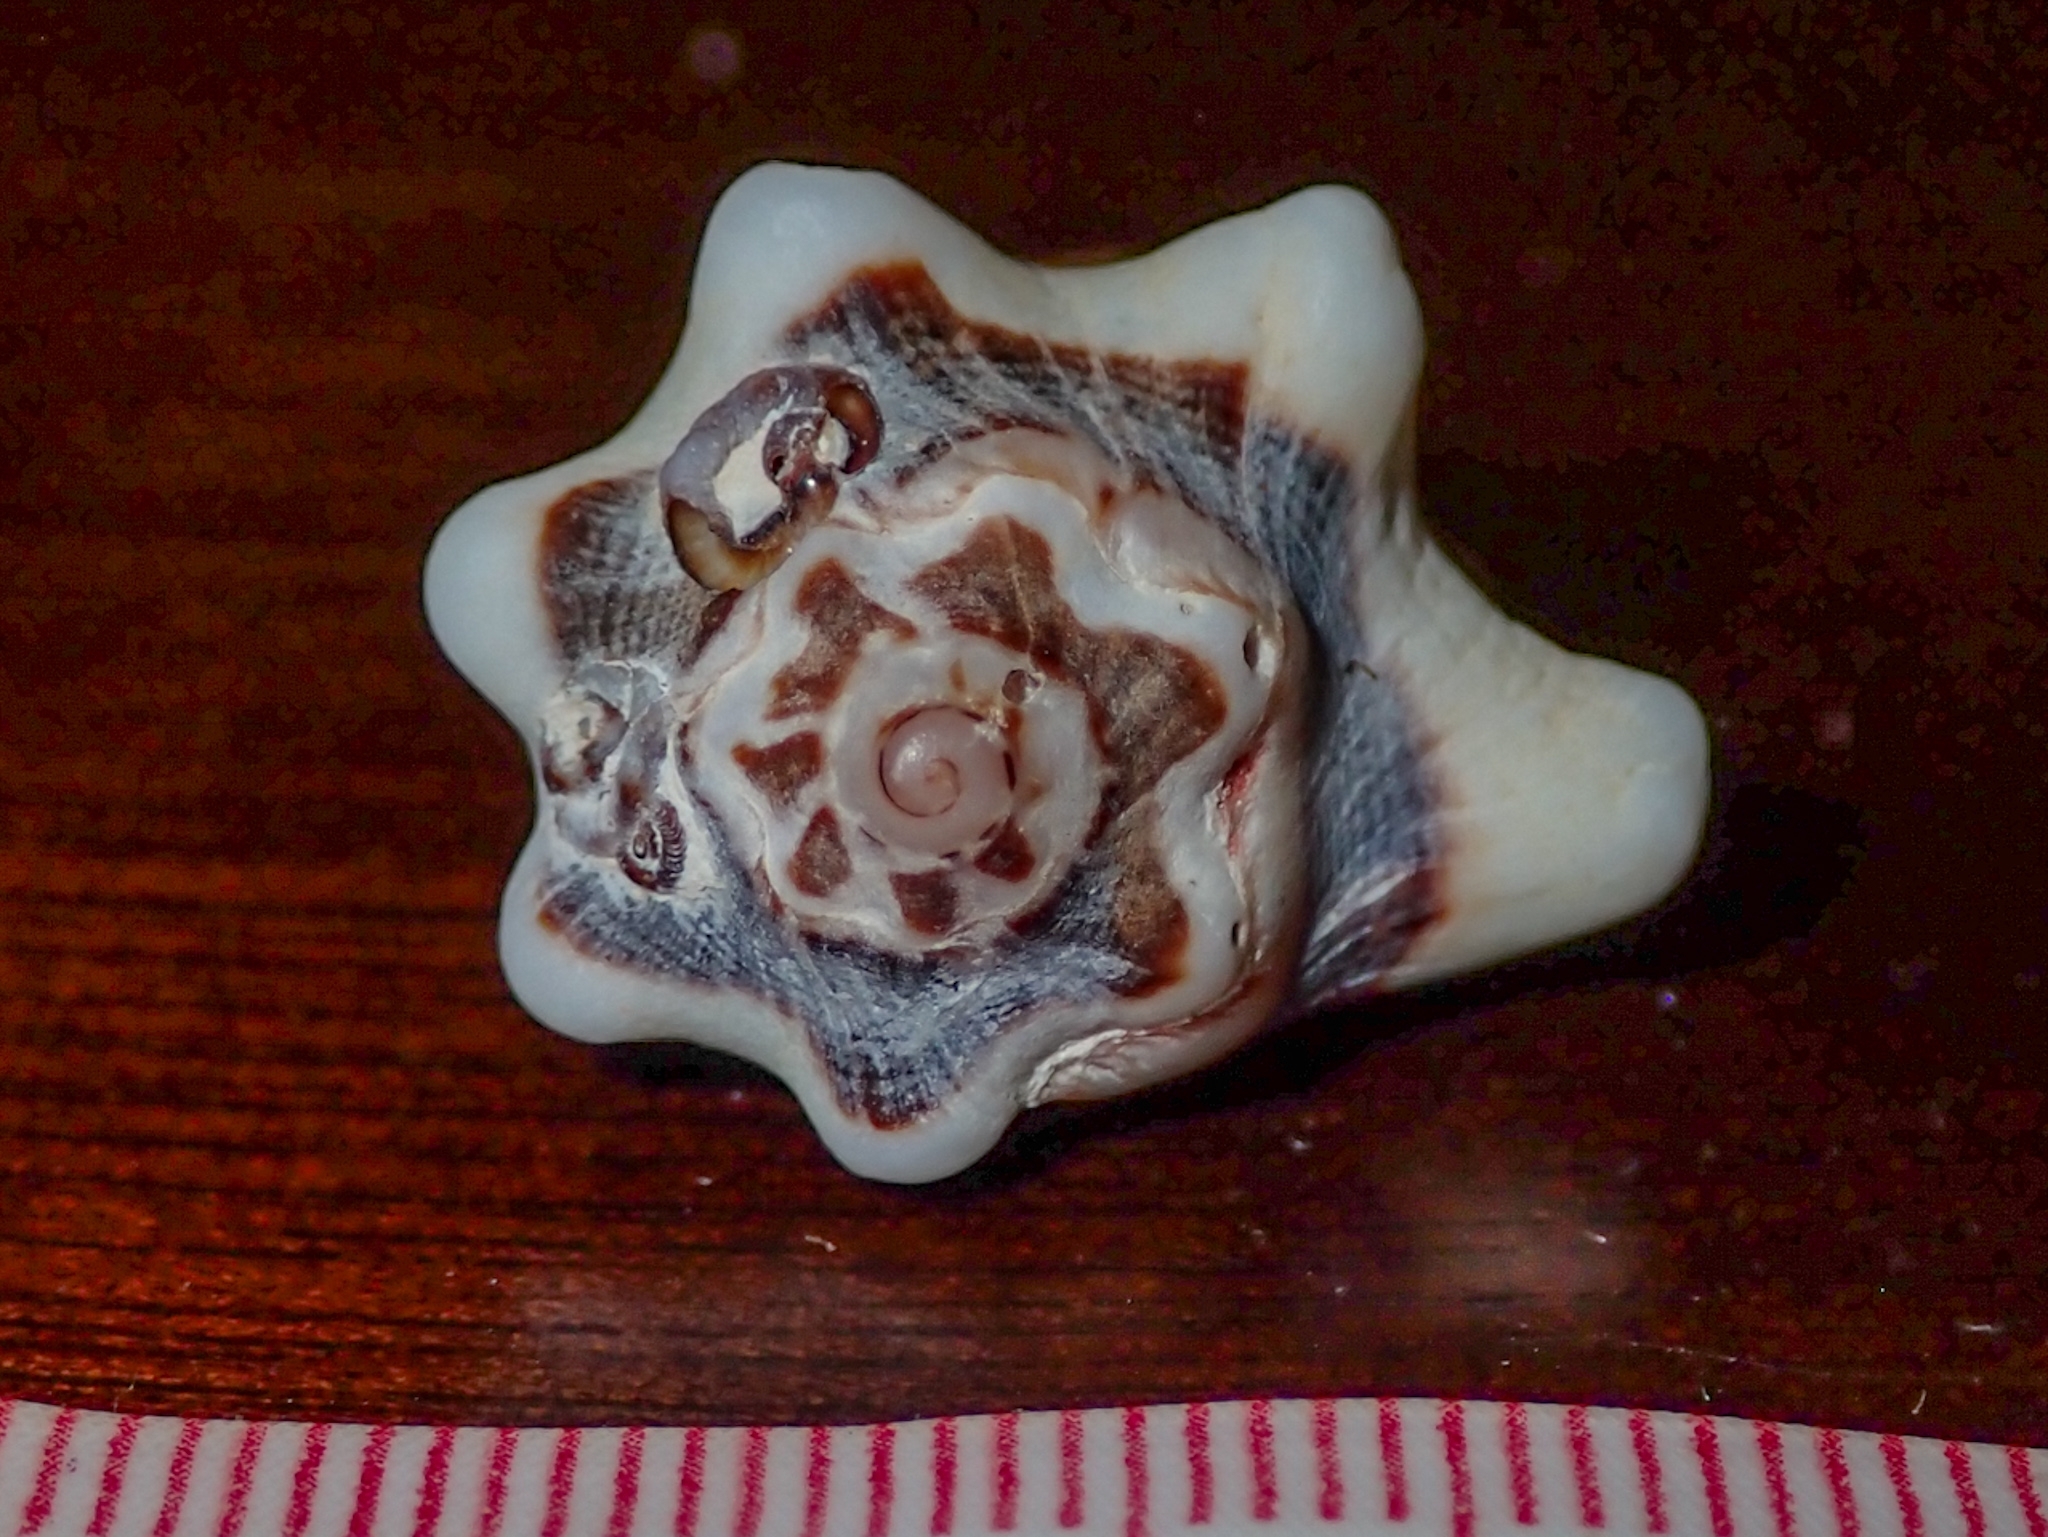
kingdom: Animalia
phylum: Mollusca
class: Gastropoda
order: Neogastropoda
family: Muricidae
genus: Vasula
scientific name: Vasula deltoidea
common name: Deltoid rocksnail
